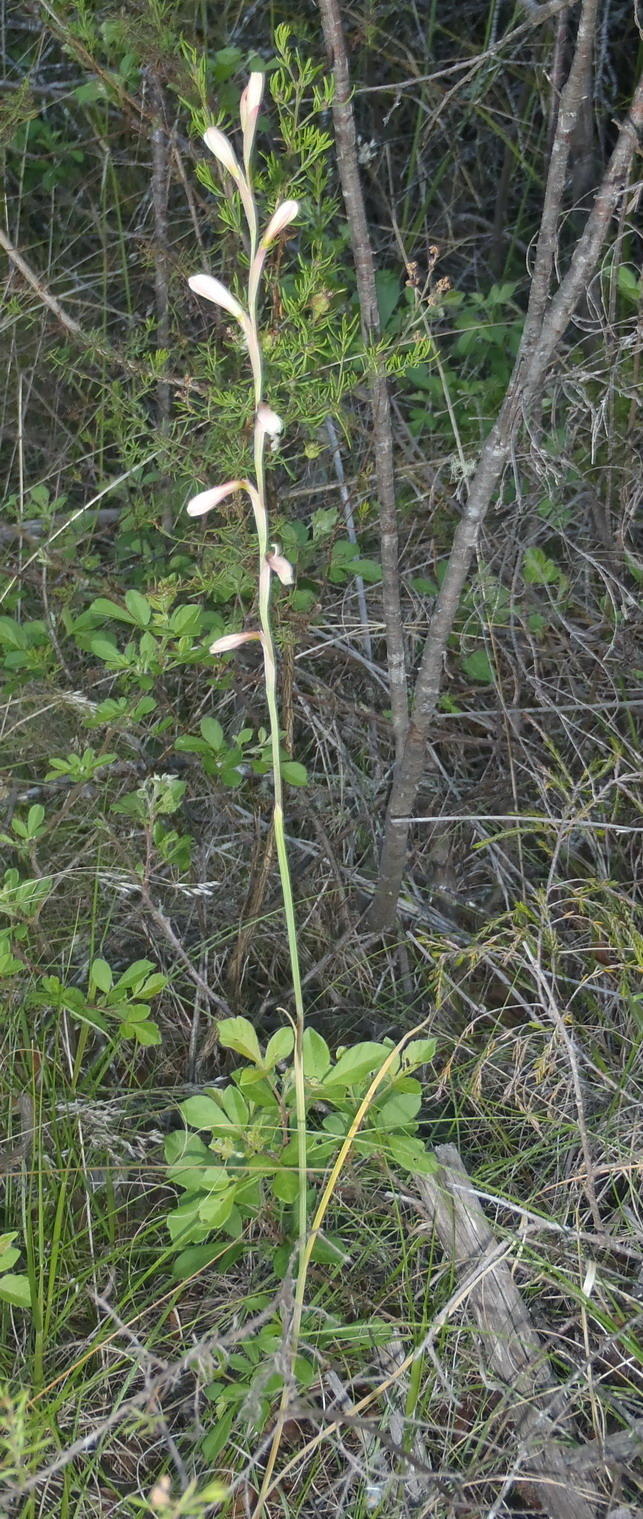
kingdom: Plantae
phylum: Tracheophyta
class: Liliopsida
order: Asparagales
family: Iridaceae
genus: Hesperantha
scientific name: Hesperantha radiata
